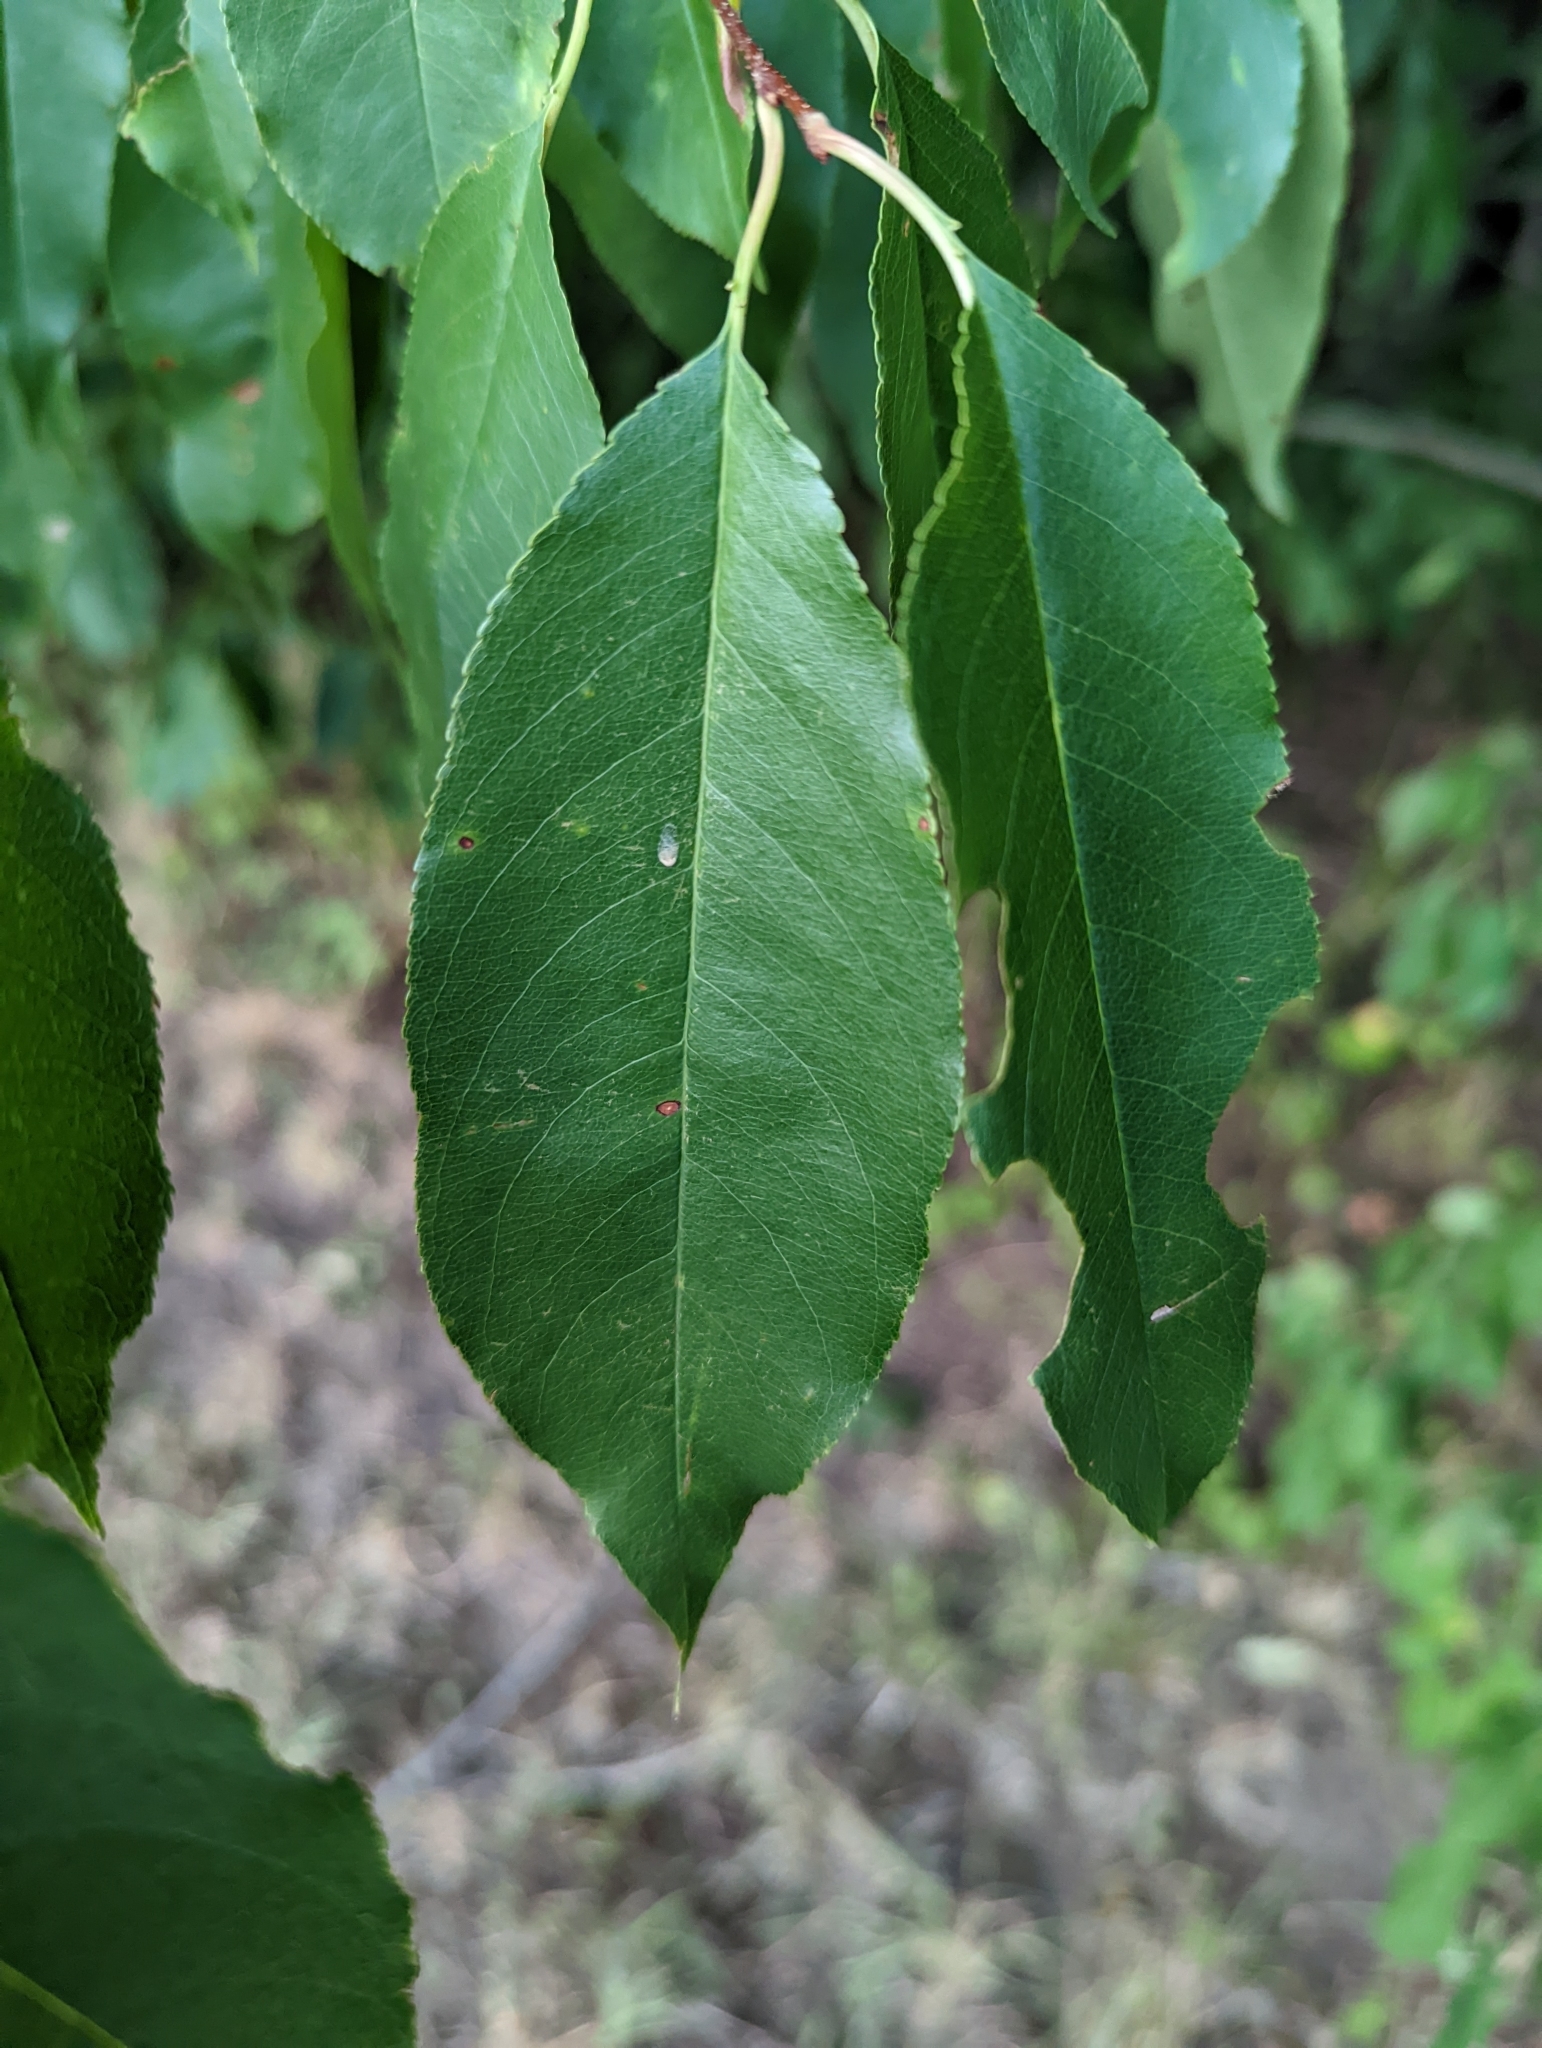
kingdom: Plantae
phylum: Tracheophyta
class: Magnoliopsida
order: Rosales
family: Rosaceae
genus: Prunus
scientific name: Prunus serotina
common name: Black cherry
